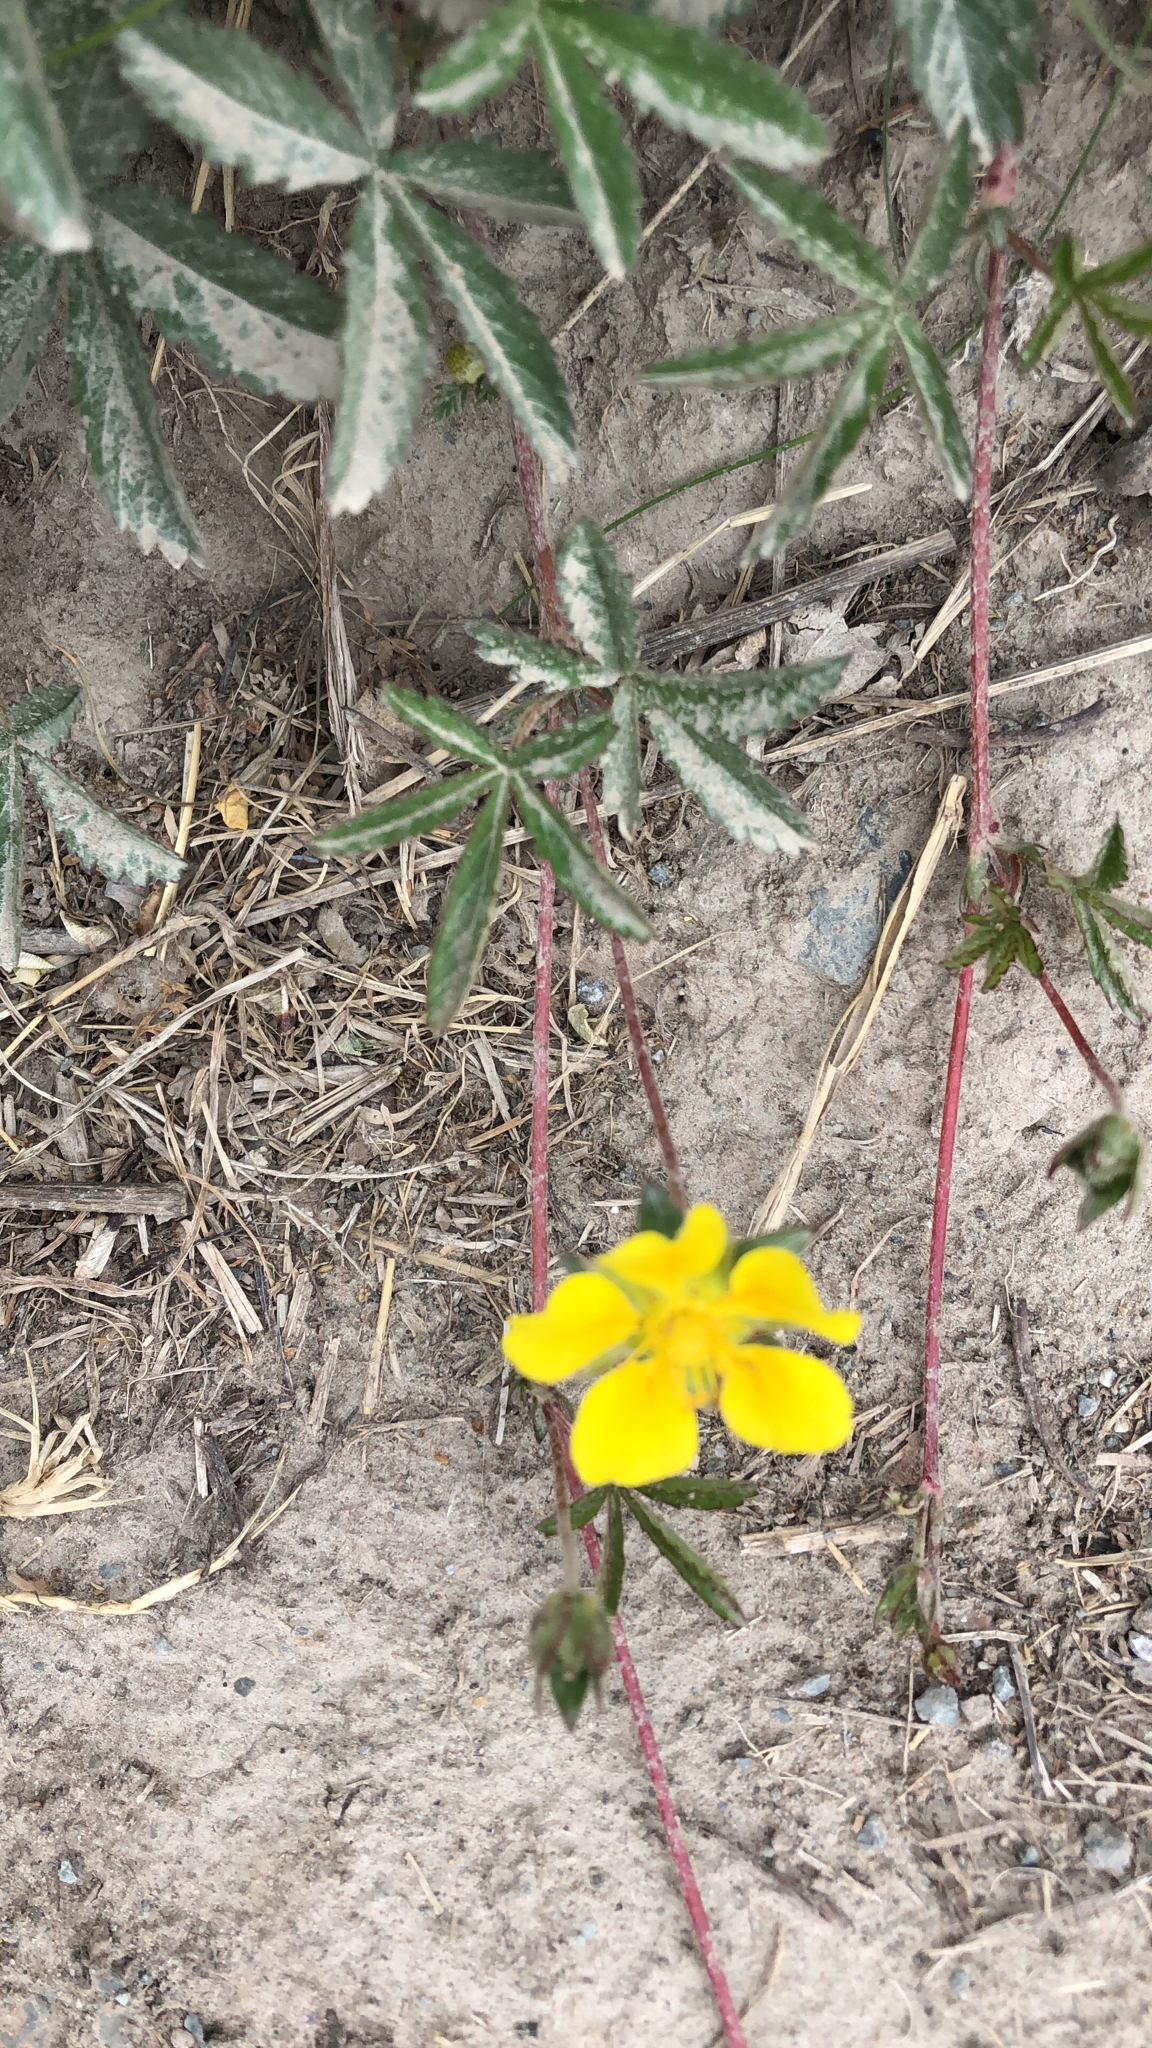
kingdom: Plantae
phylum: Tracheophyta
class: Magnoliopsida
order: Rosales
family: Rosaceae
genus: Potentilla
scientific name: Potentilla reptans
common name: Creeping cinquefoil
